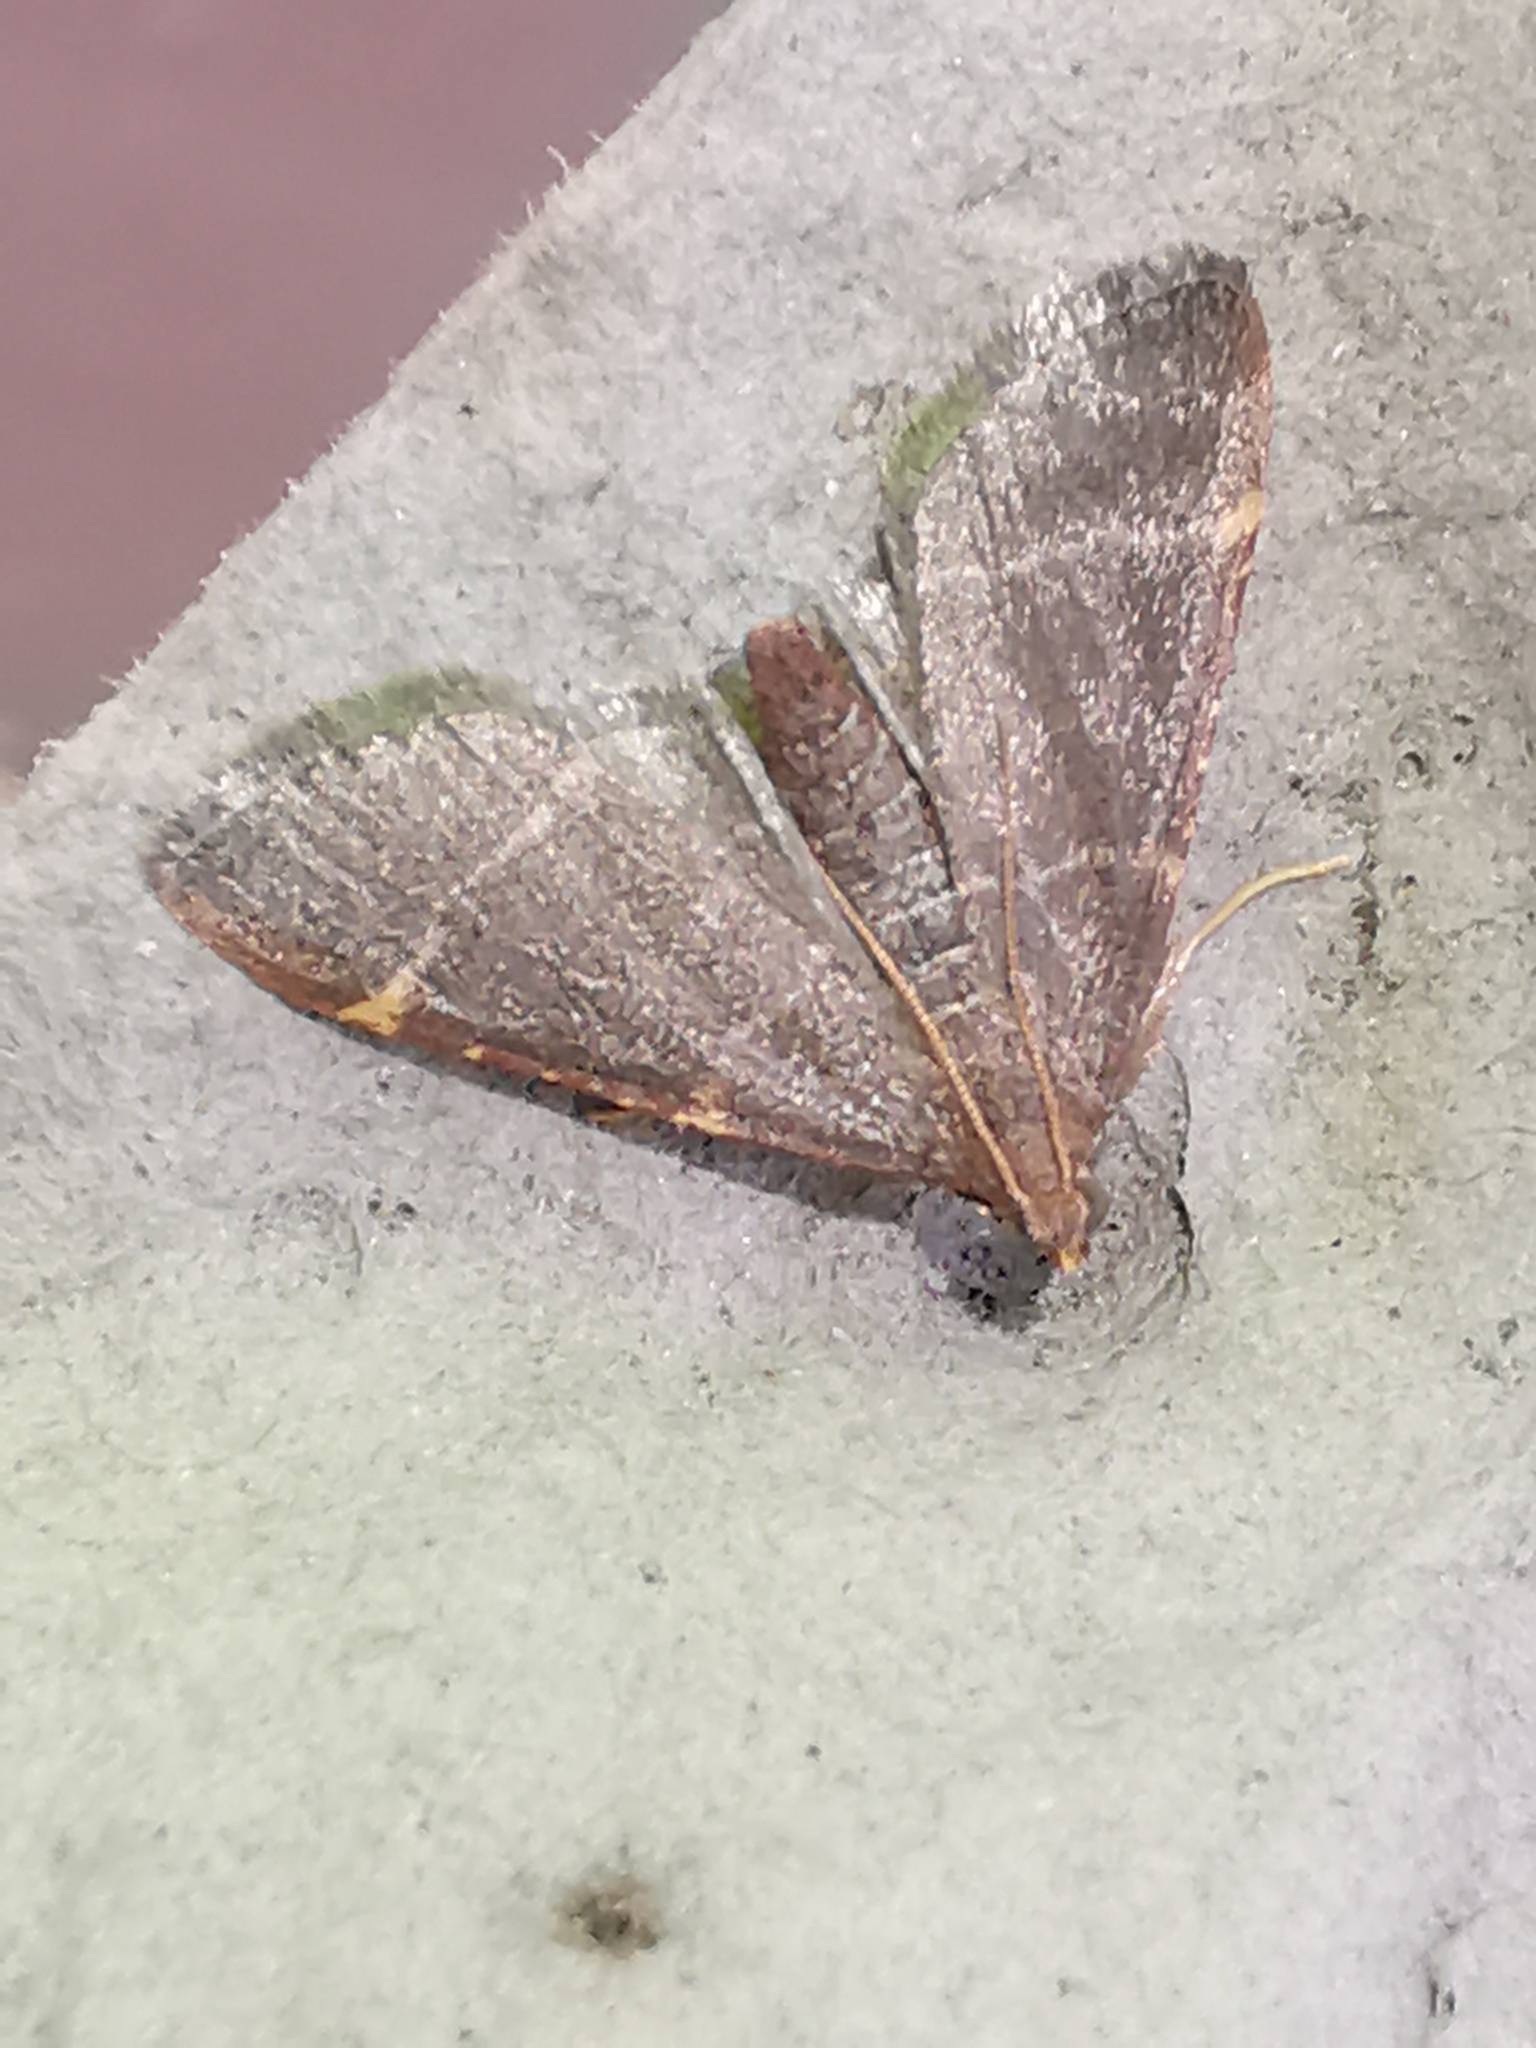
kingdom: Animalia
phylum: Arthropoda
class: Insecta
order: Lepidoptera
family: Pyralidae
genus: Hypsopygia
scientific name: Hypsopygia glaucinalis
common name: Double-striped tabby
